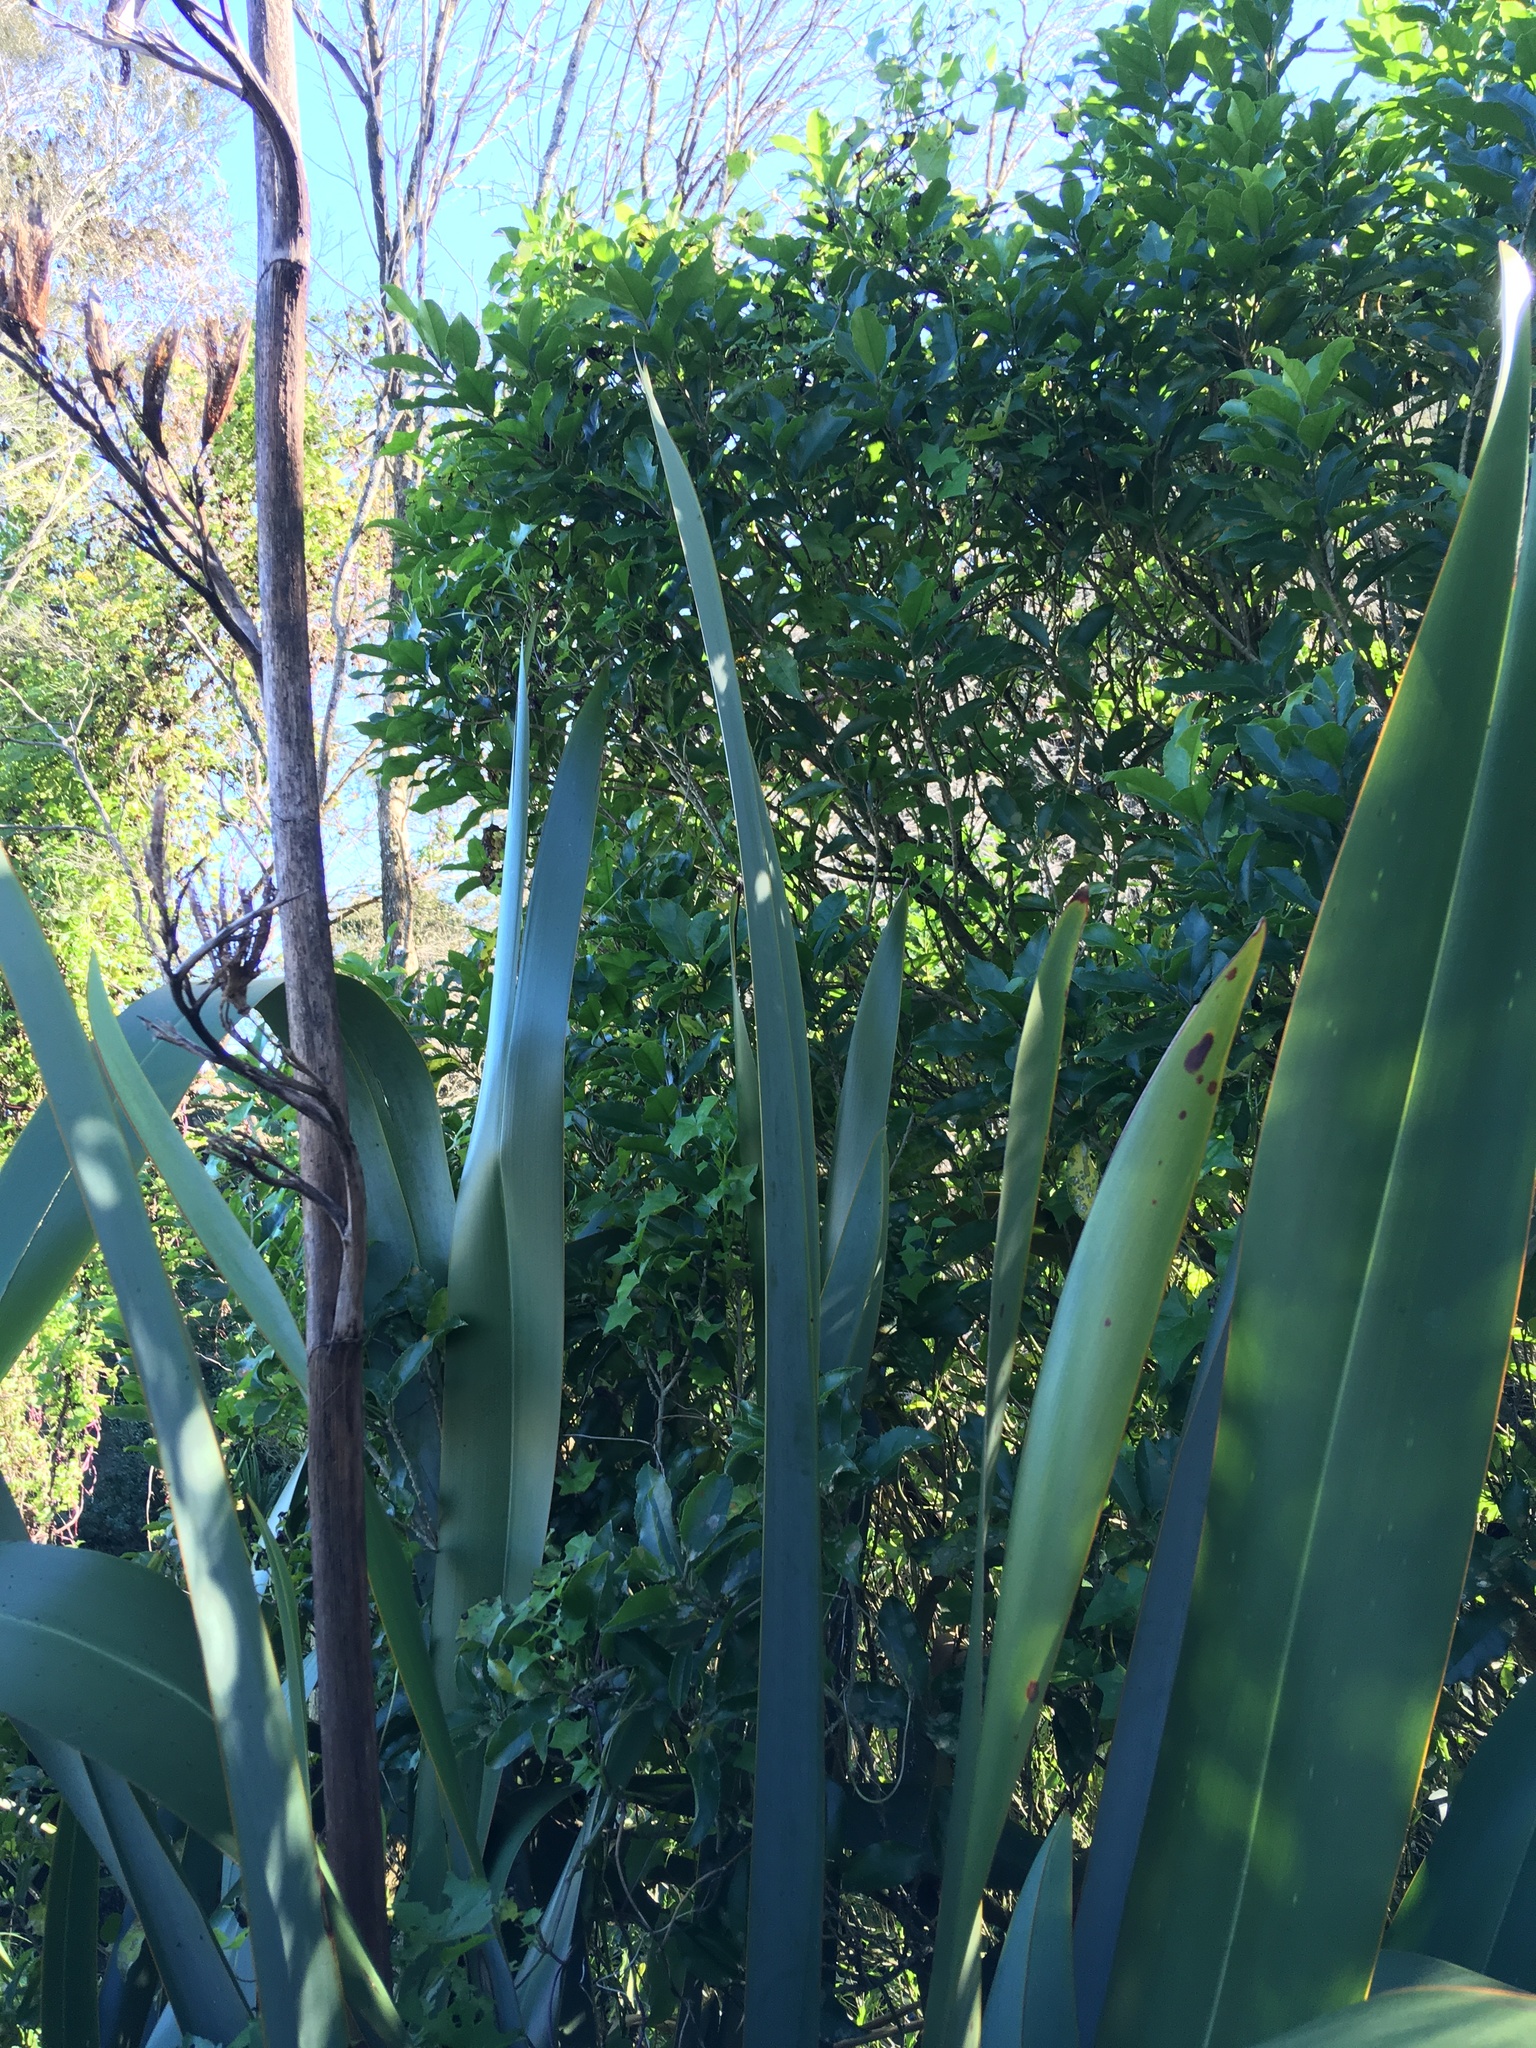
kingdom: Plantae
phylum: Tracheophyta
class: Liliopsida
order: Asparagales
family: Asphodelaceae
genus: Phormium
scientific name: Phormium tenax
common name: New zealand flax
